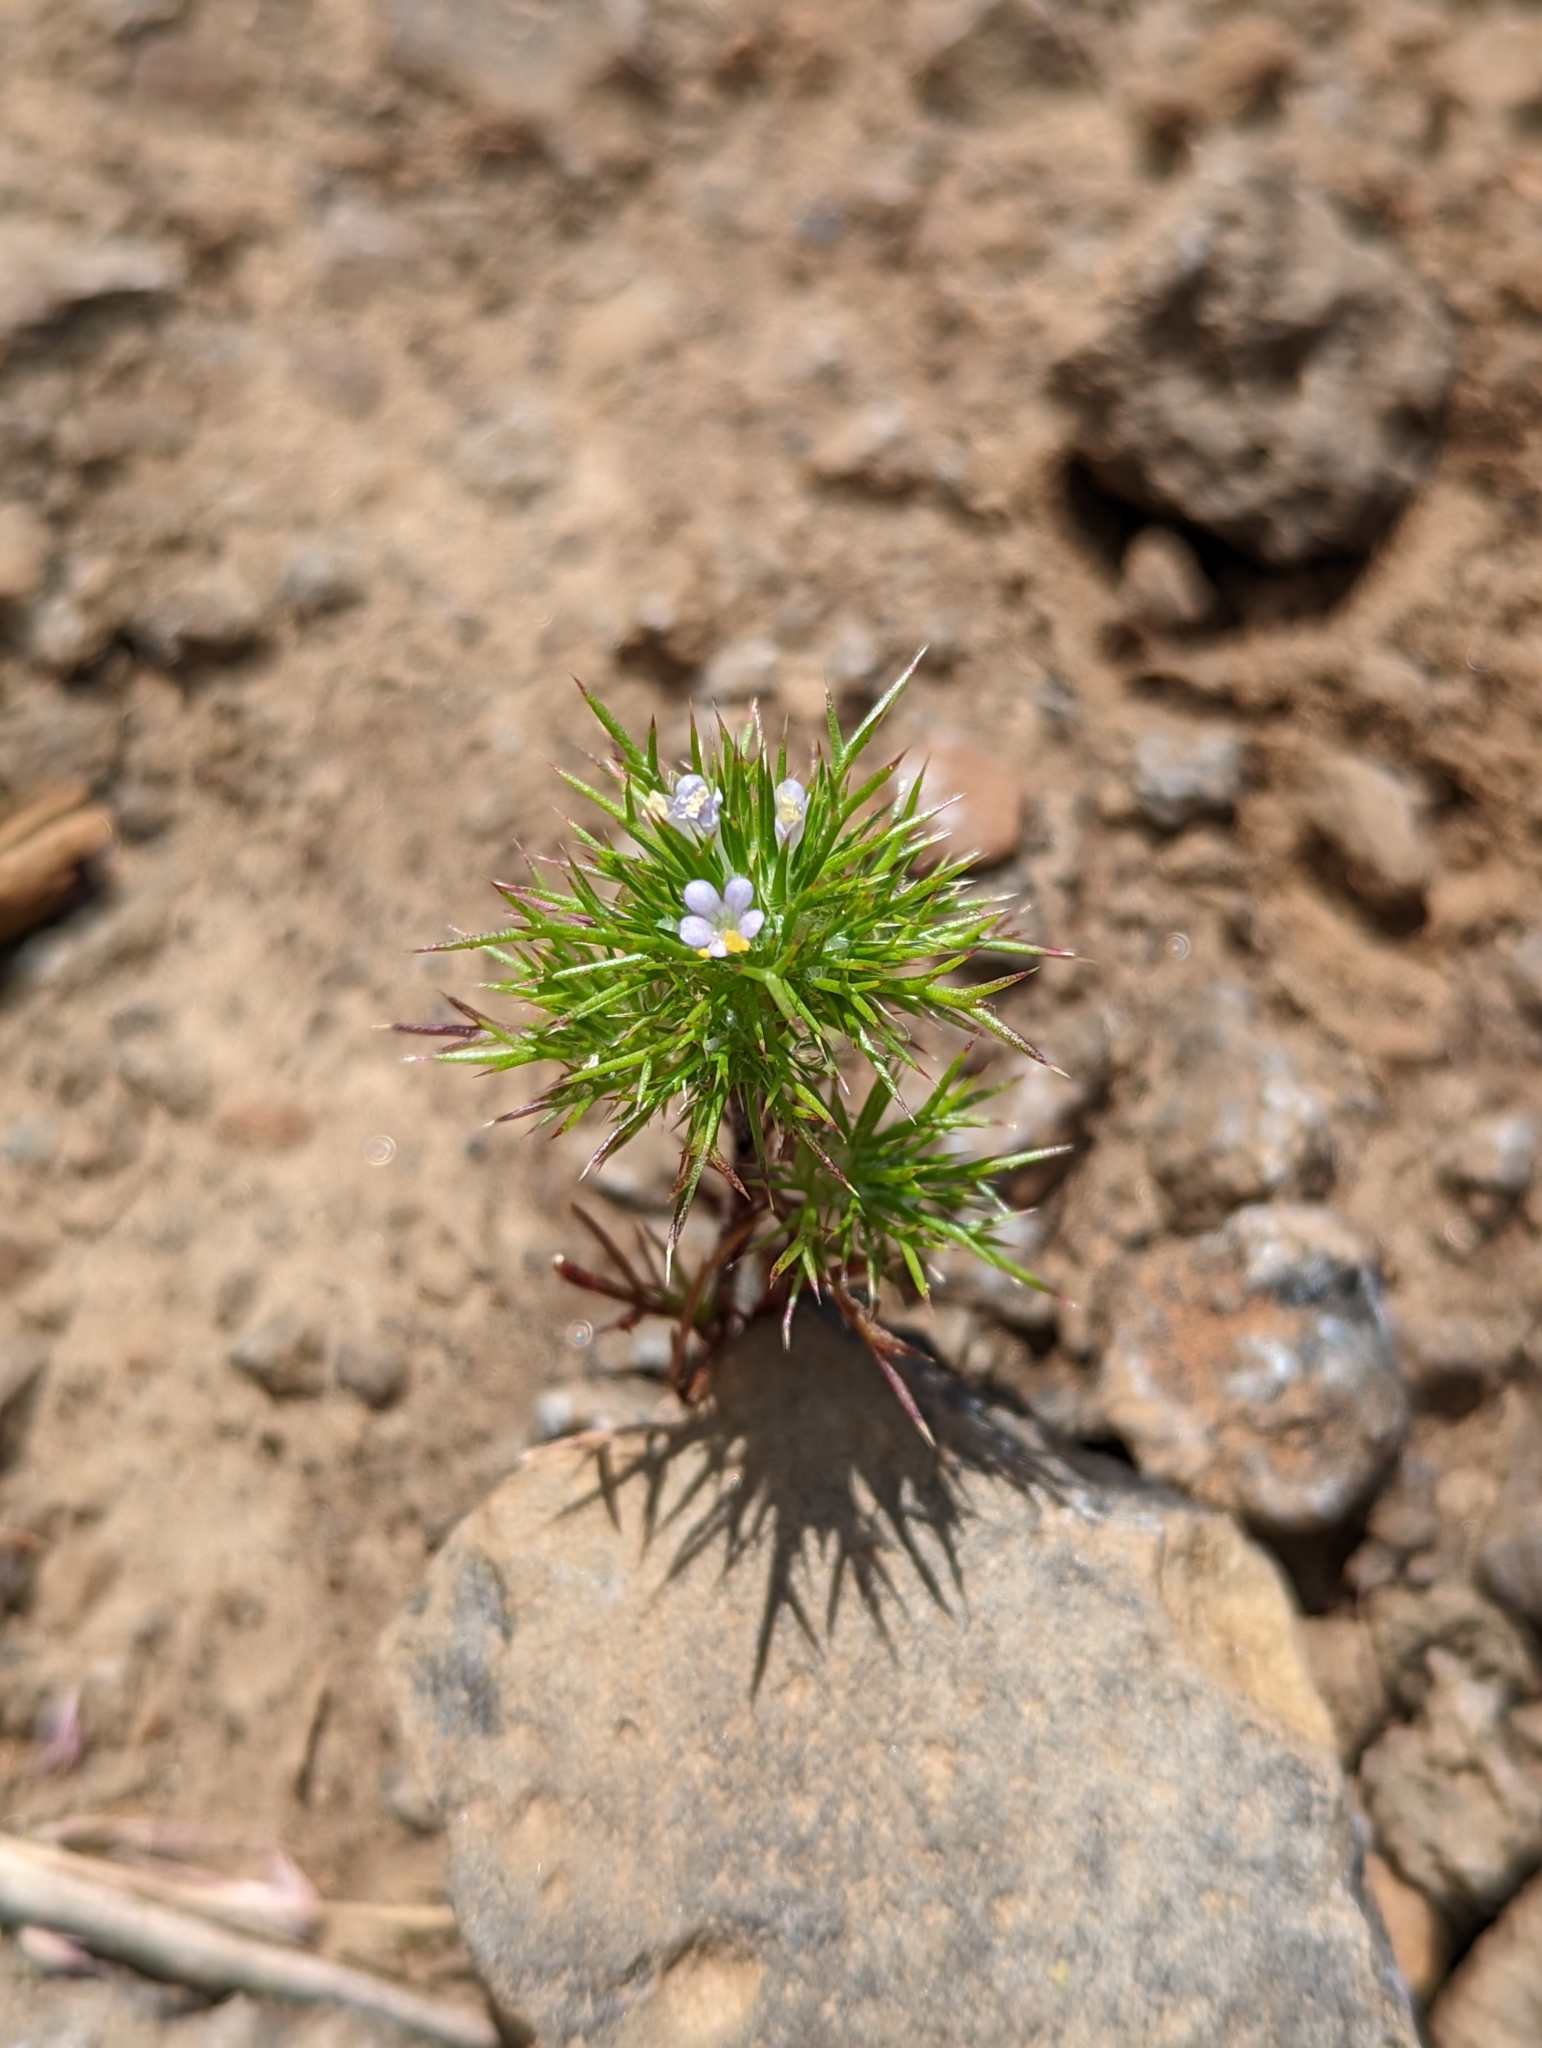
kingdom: Plantae
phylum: Tracheophyta
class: Magnoliopsida
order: Ericales
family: Polemoniaceae
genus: Navarretia
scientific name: Navarretia intertexta
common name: Needle-leaved navarretia
